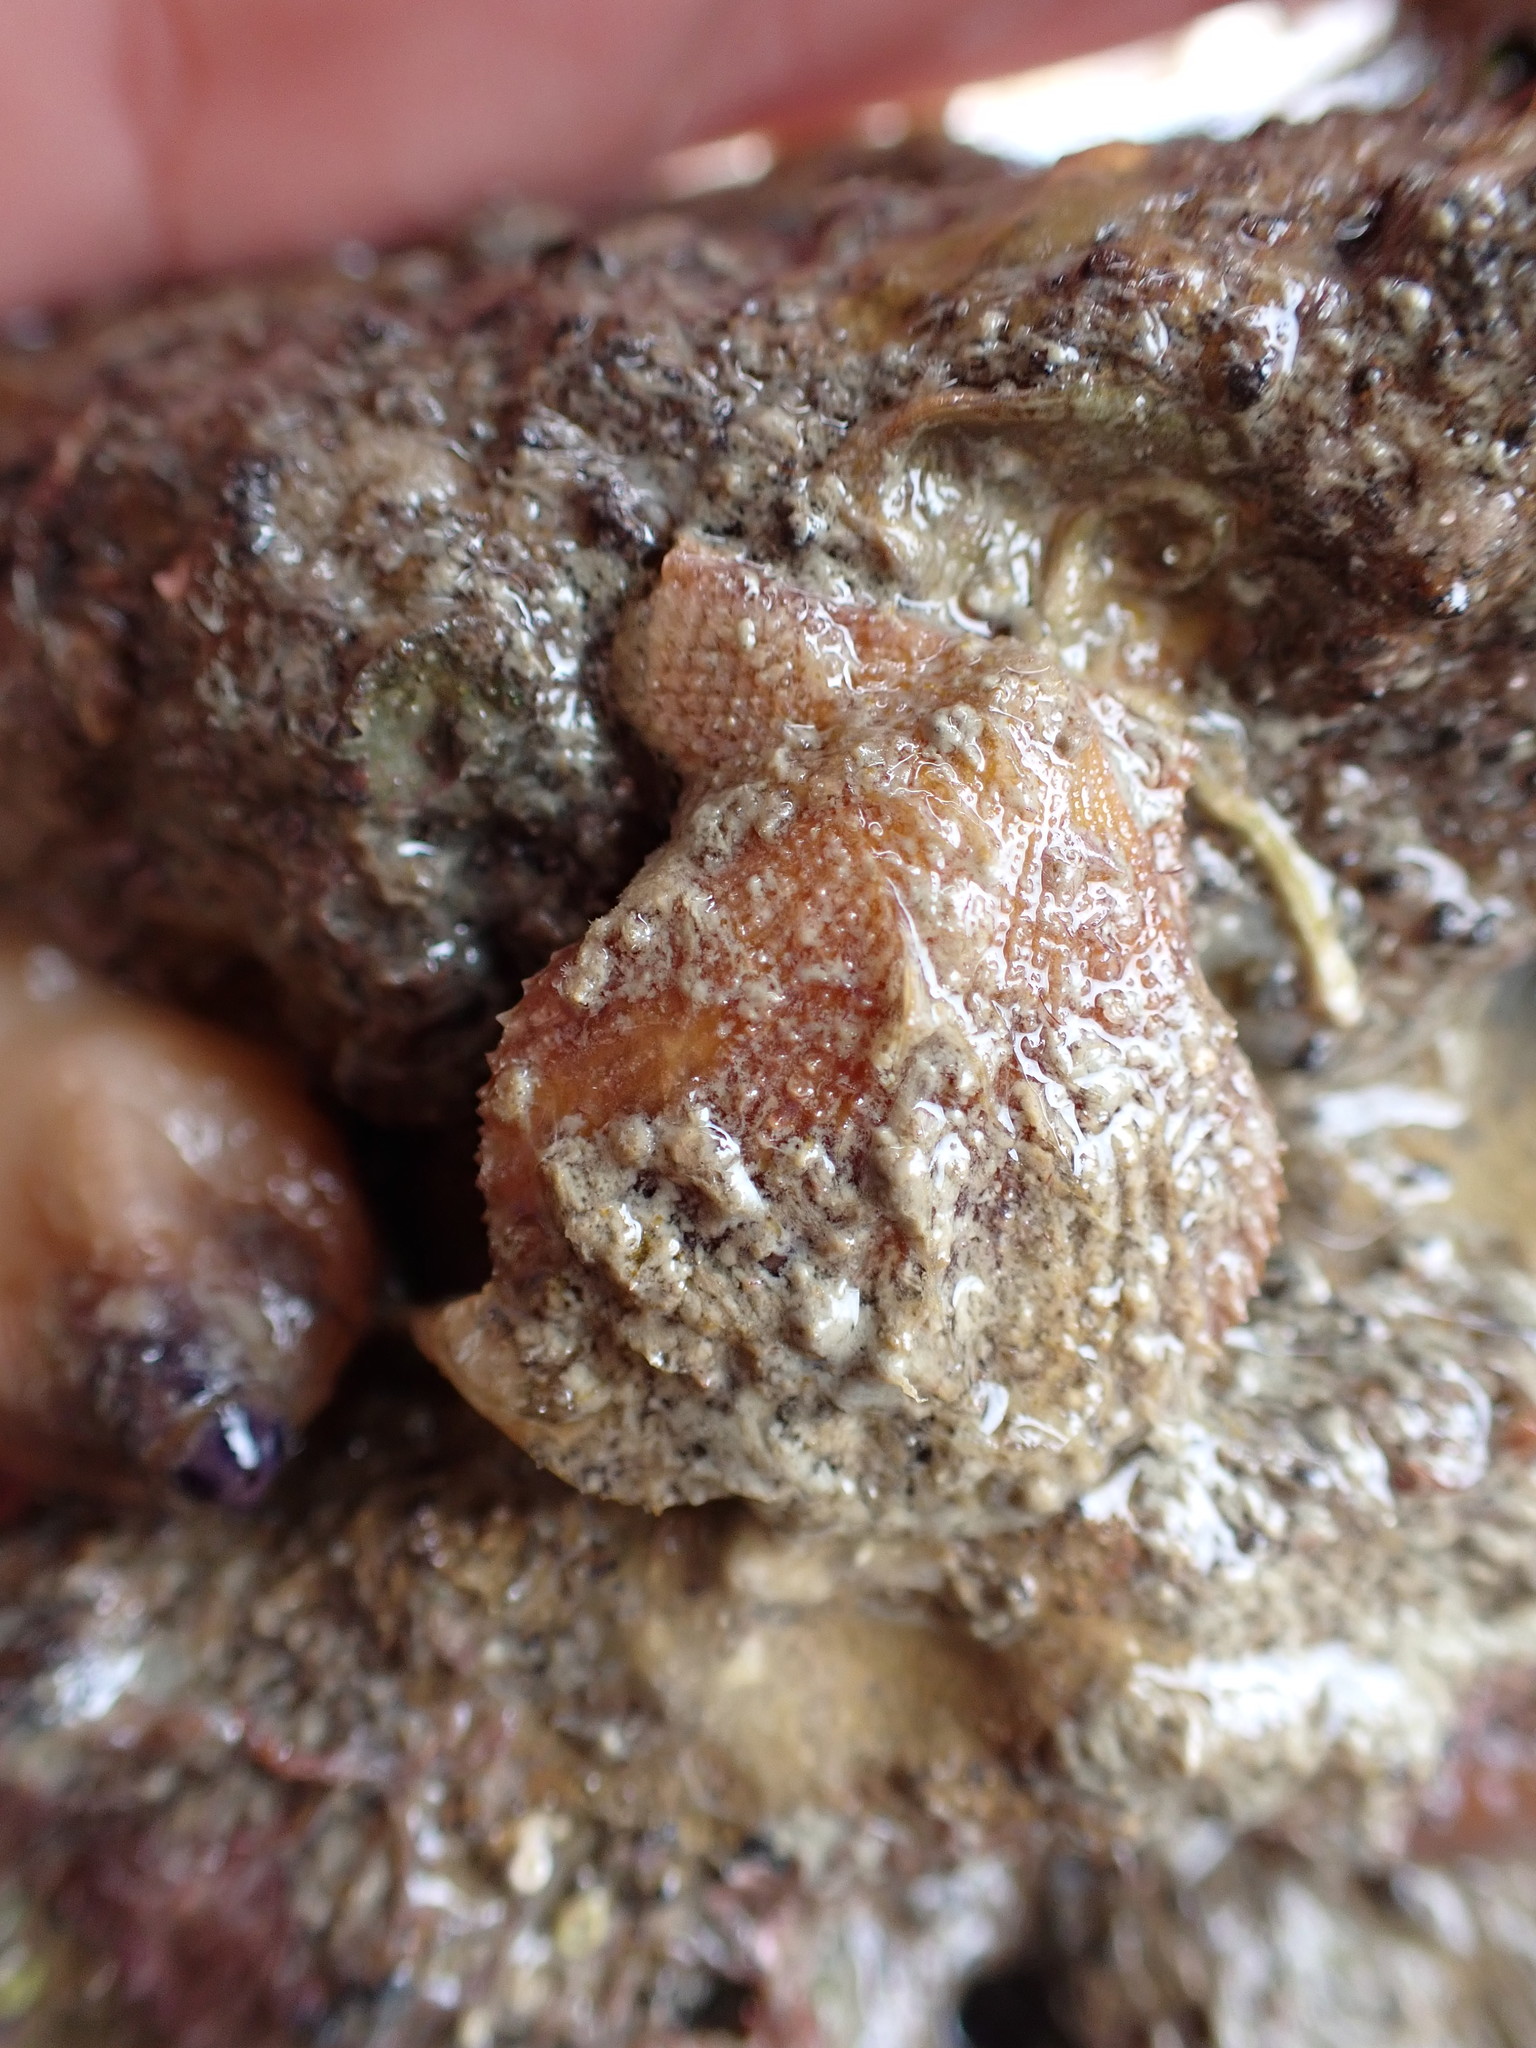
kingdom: Animalia
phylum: Mollusca
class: Bivalvia
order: Pectinida
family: Pectinidae
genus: Talochlamys
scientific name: Talochlamys zelandiae
